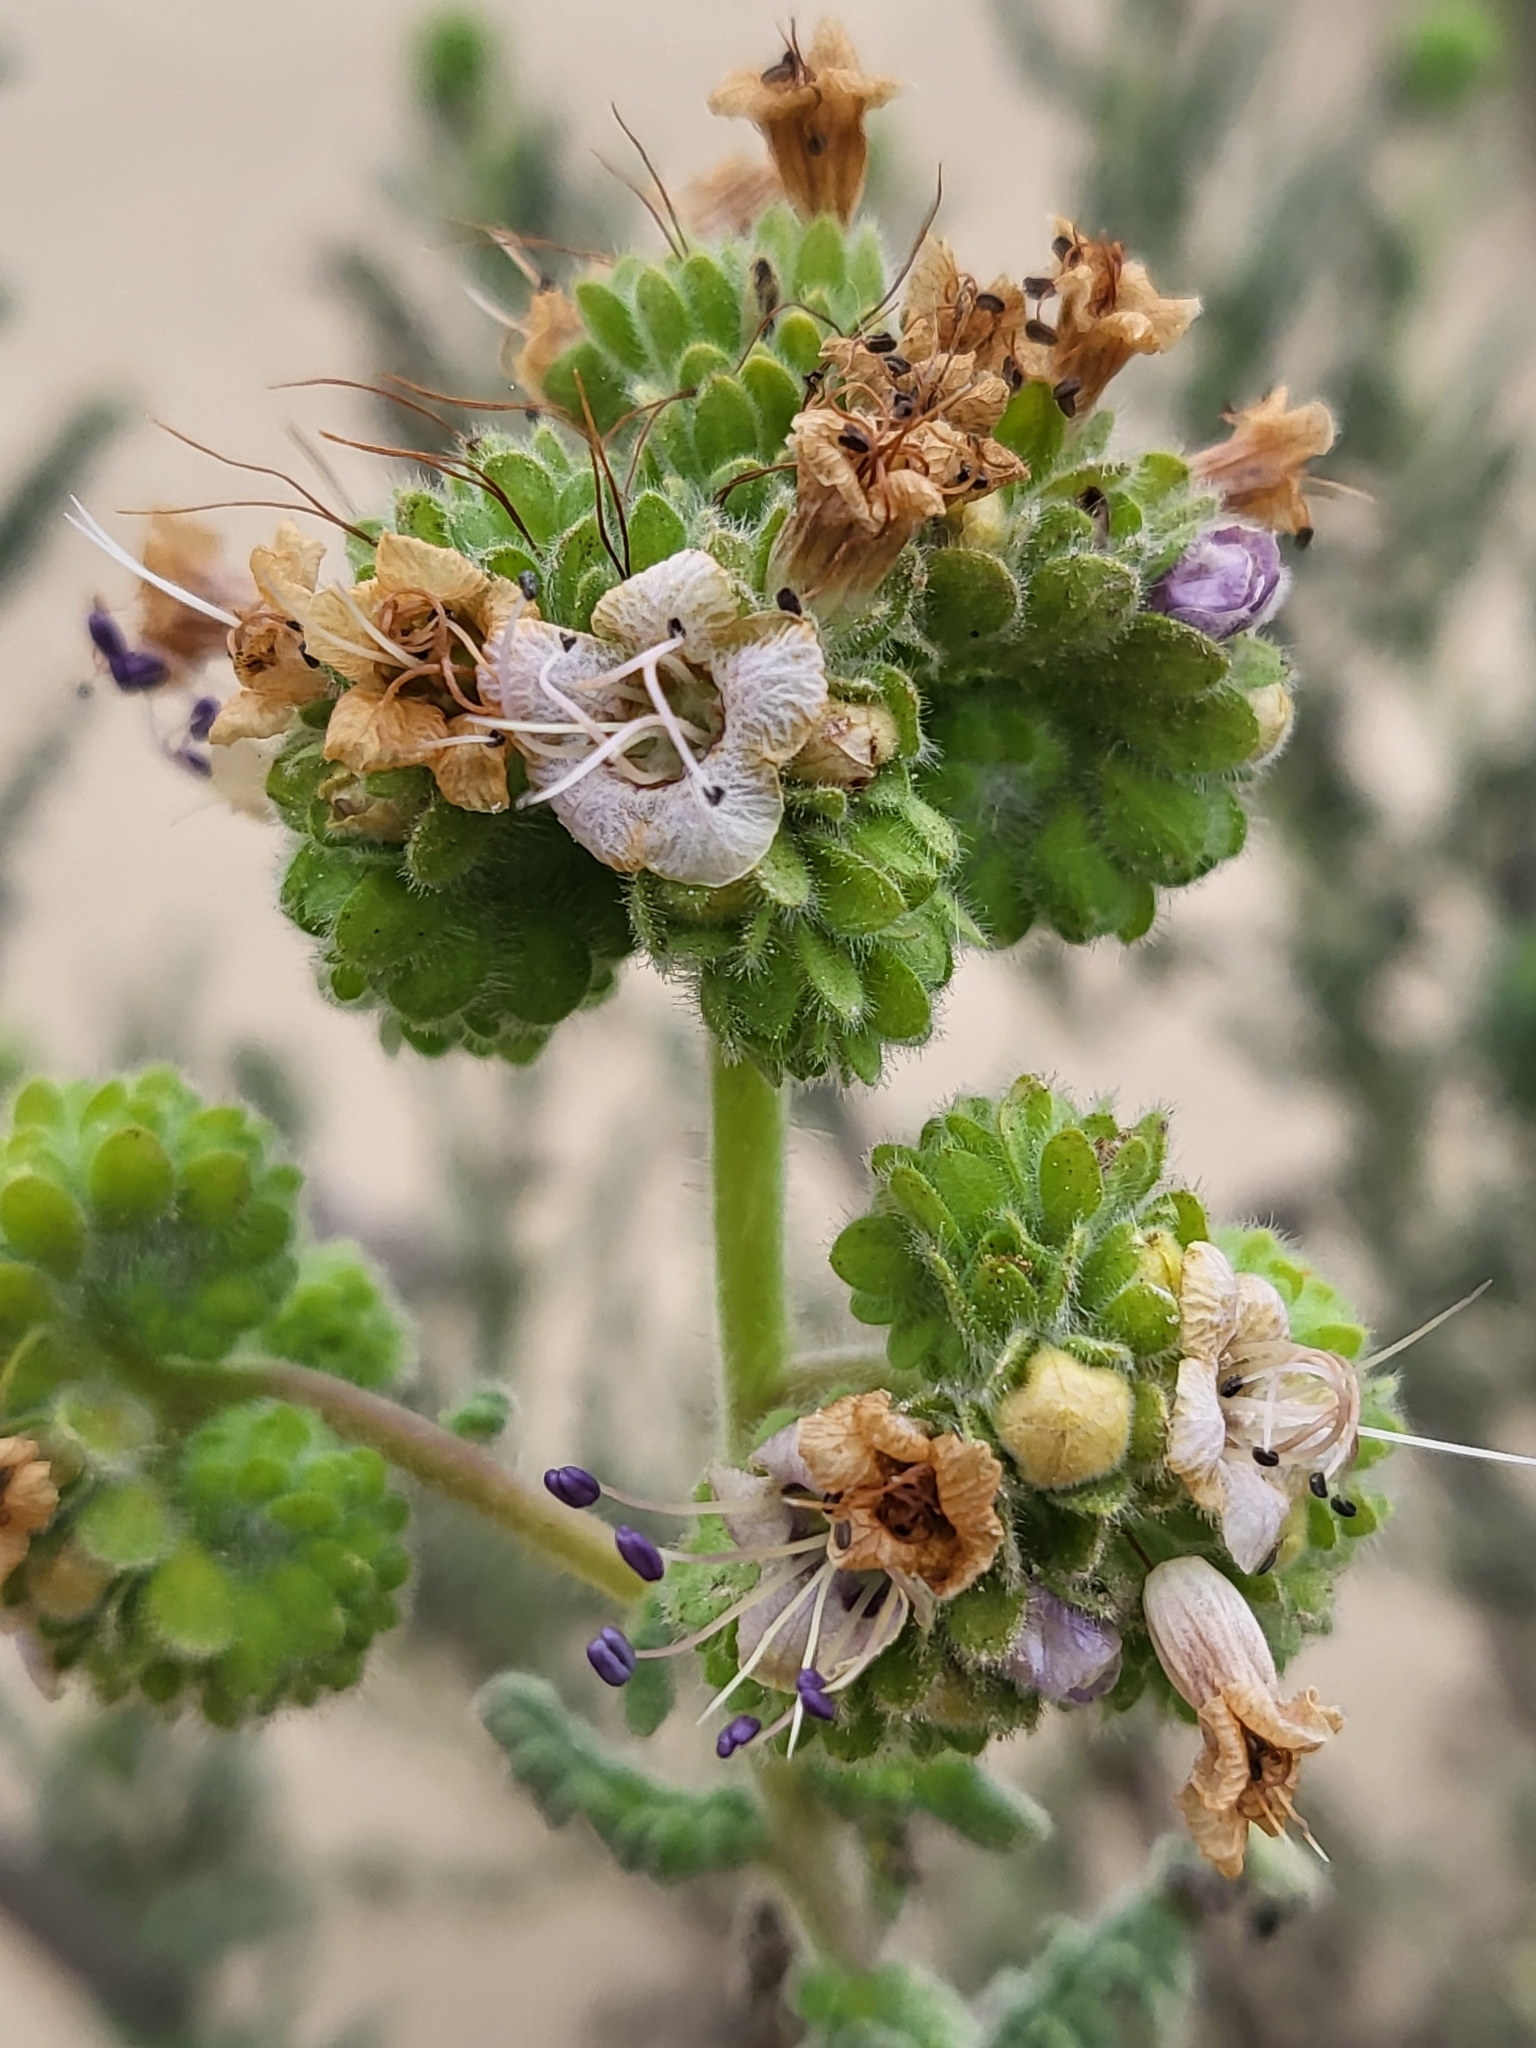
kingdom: Plantae
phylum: Tracheophyta
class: Magnoliopsida
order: Boraginales
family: Hydrophyllaceae
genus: Phacelia
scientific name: Phacelia ramosissima
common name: Branching phacelia
